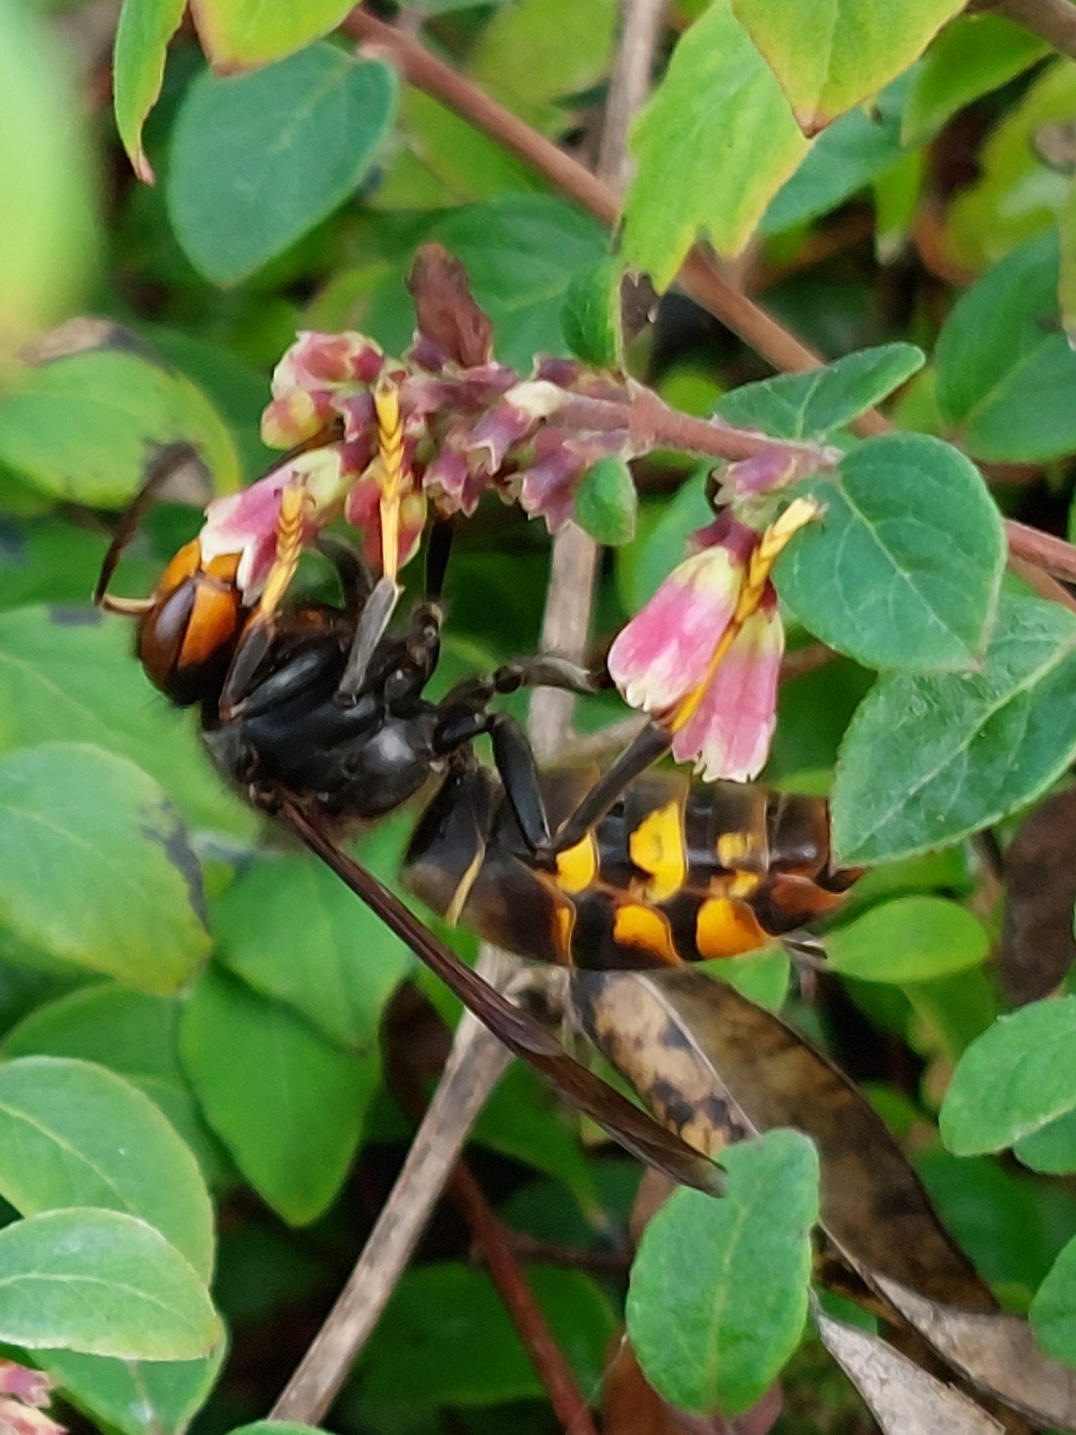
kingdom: Animalia
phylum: Arthropoda
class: Insecta
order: Hymenoptera
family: Vespidae
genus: Vespa
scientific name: Vespa velutina
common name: Asian hornet
